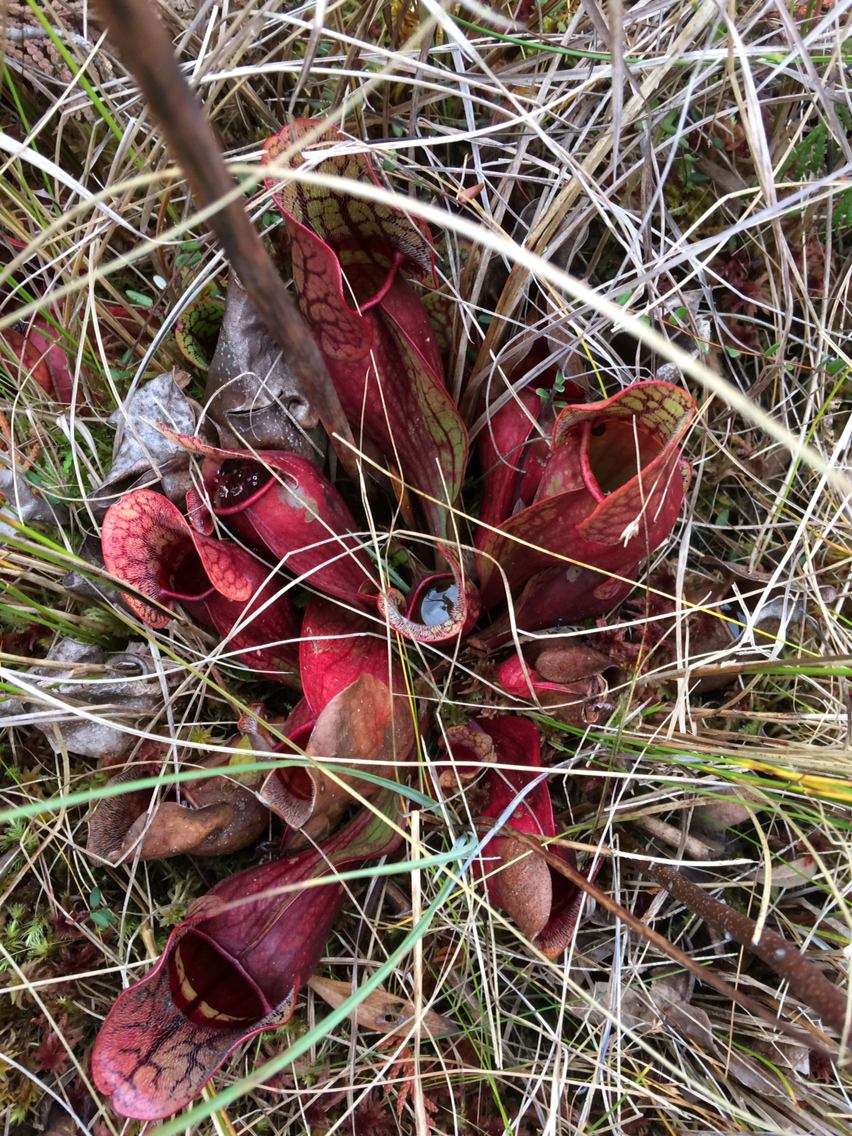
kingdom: Plantae
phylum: Tracheophyta
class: Magnoliopsida
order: Ericales
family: Sarraceniaceae
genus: Sarracenia
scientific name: Sarracenia purpurea
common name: Pitcherplant
